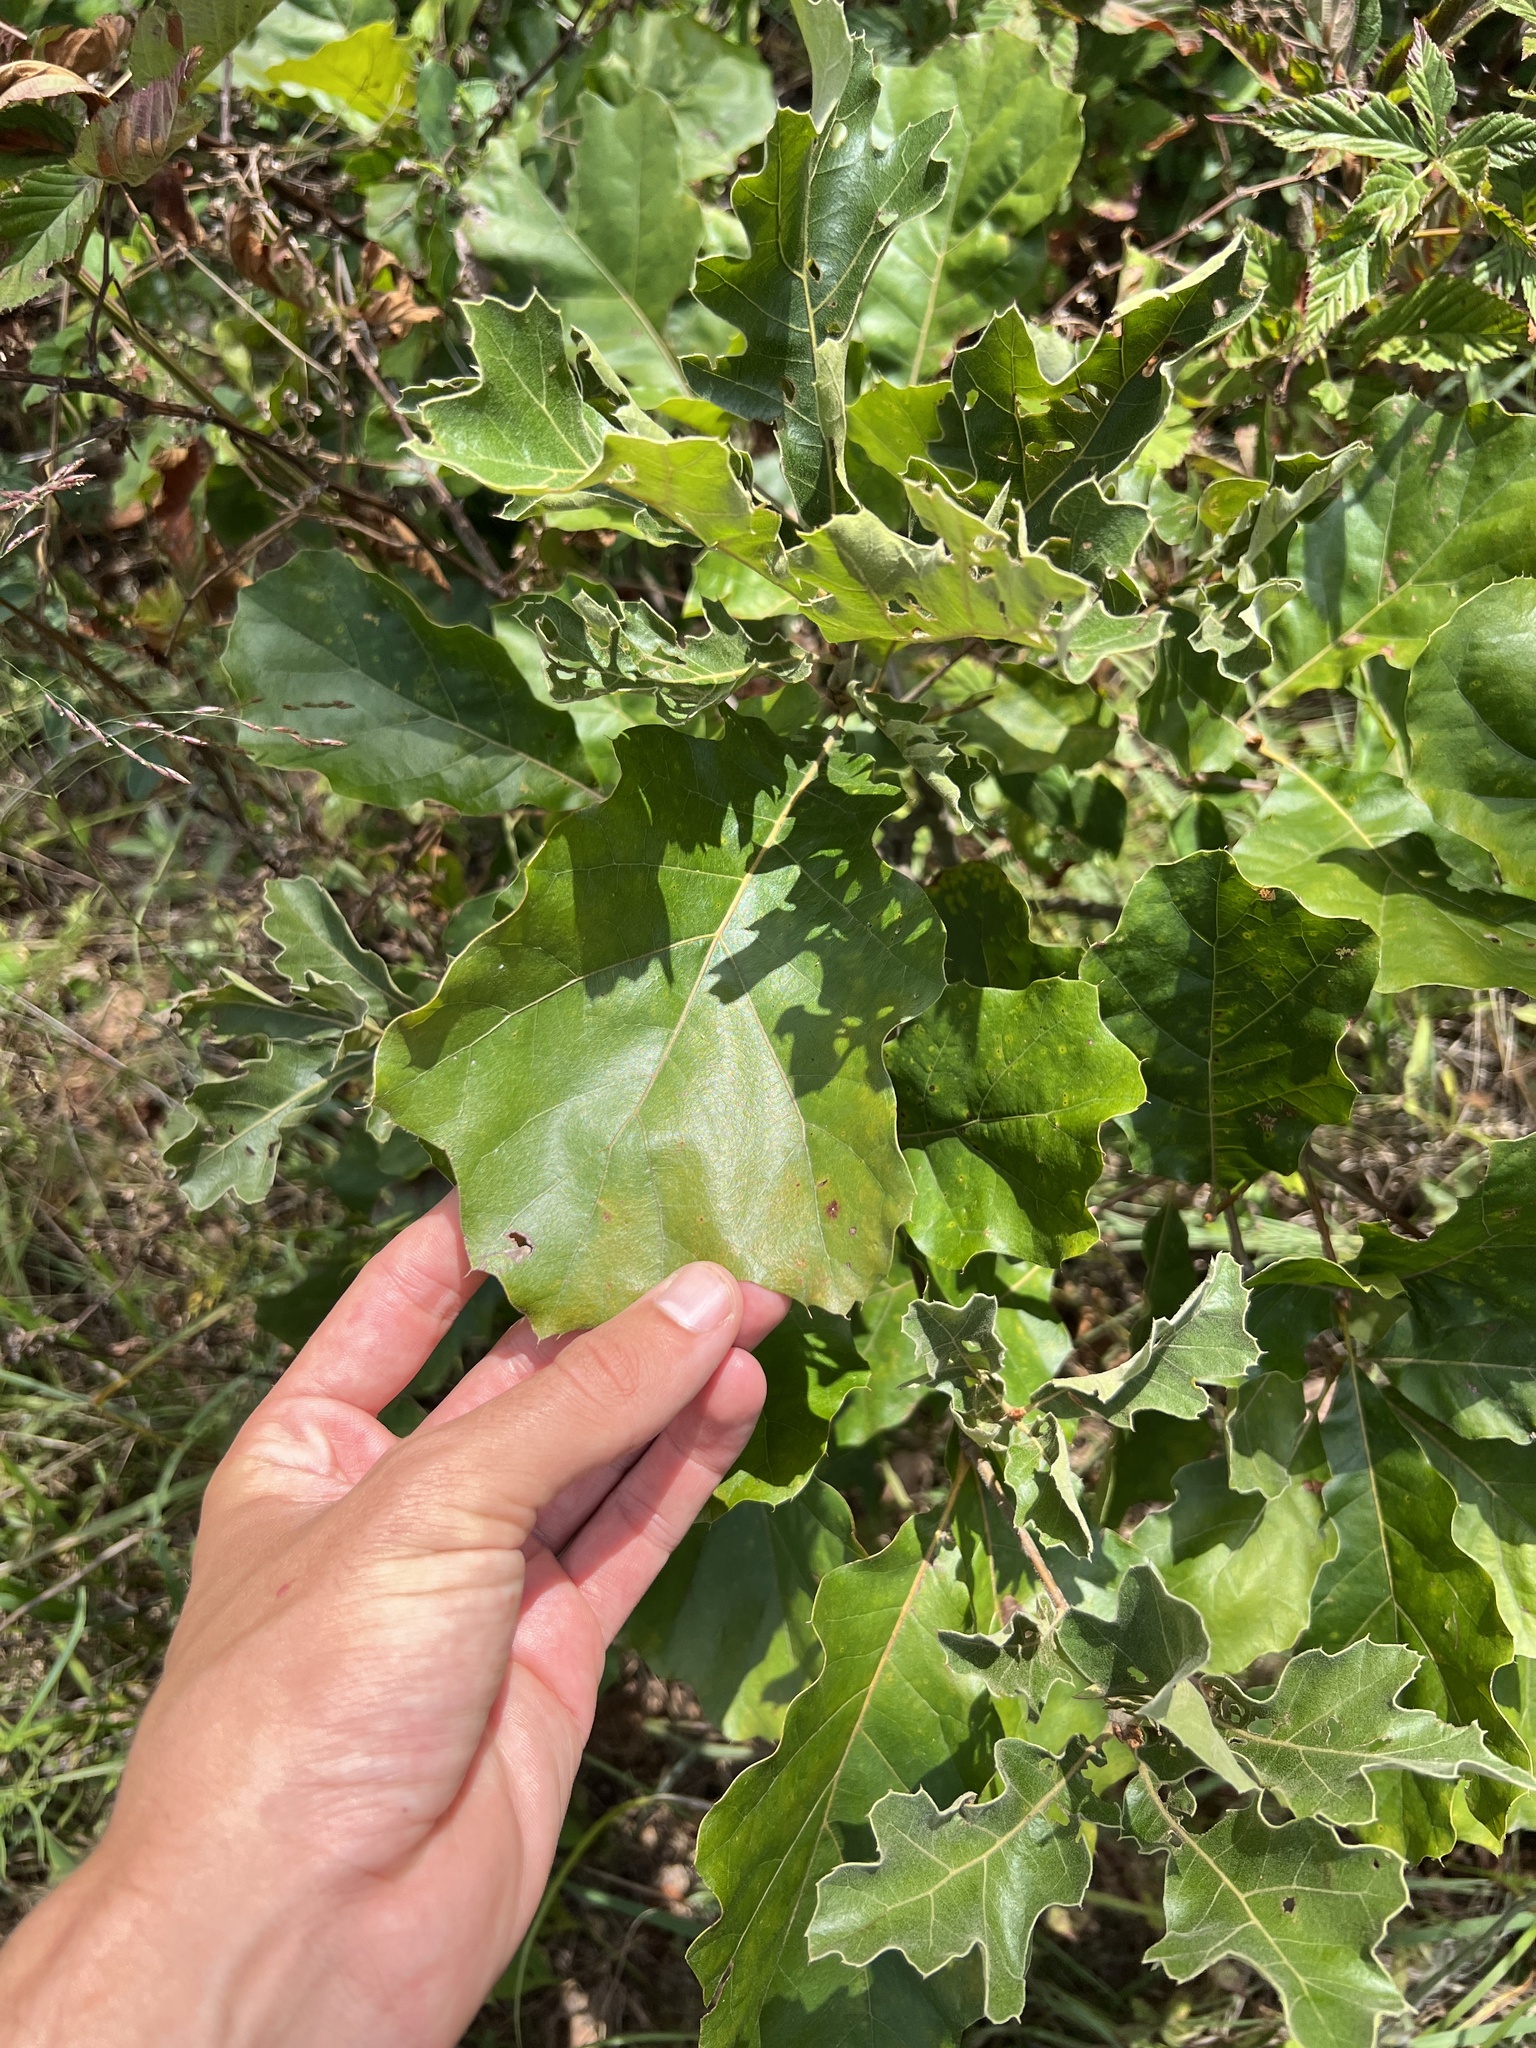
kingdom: Plantae
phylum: Tracheophyta
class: Magnoliopsida
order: Fagales
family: Fagaceae
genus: Quercus
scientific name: Quercus velutina
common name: Black oak
